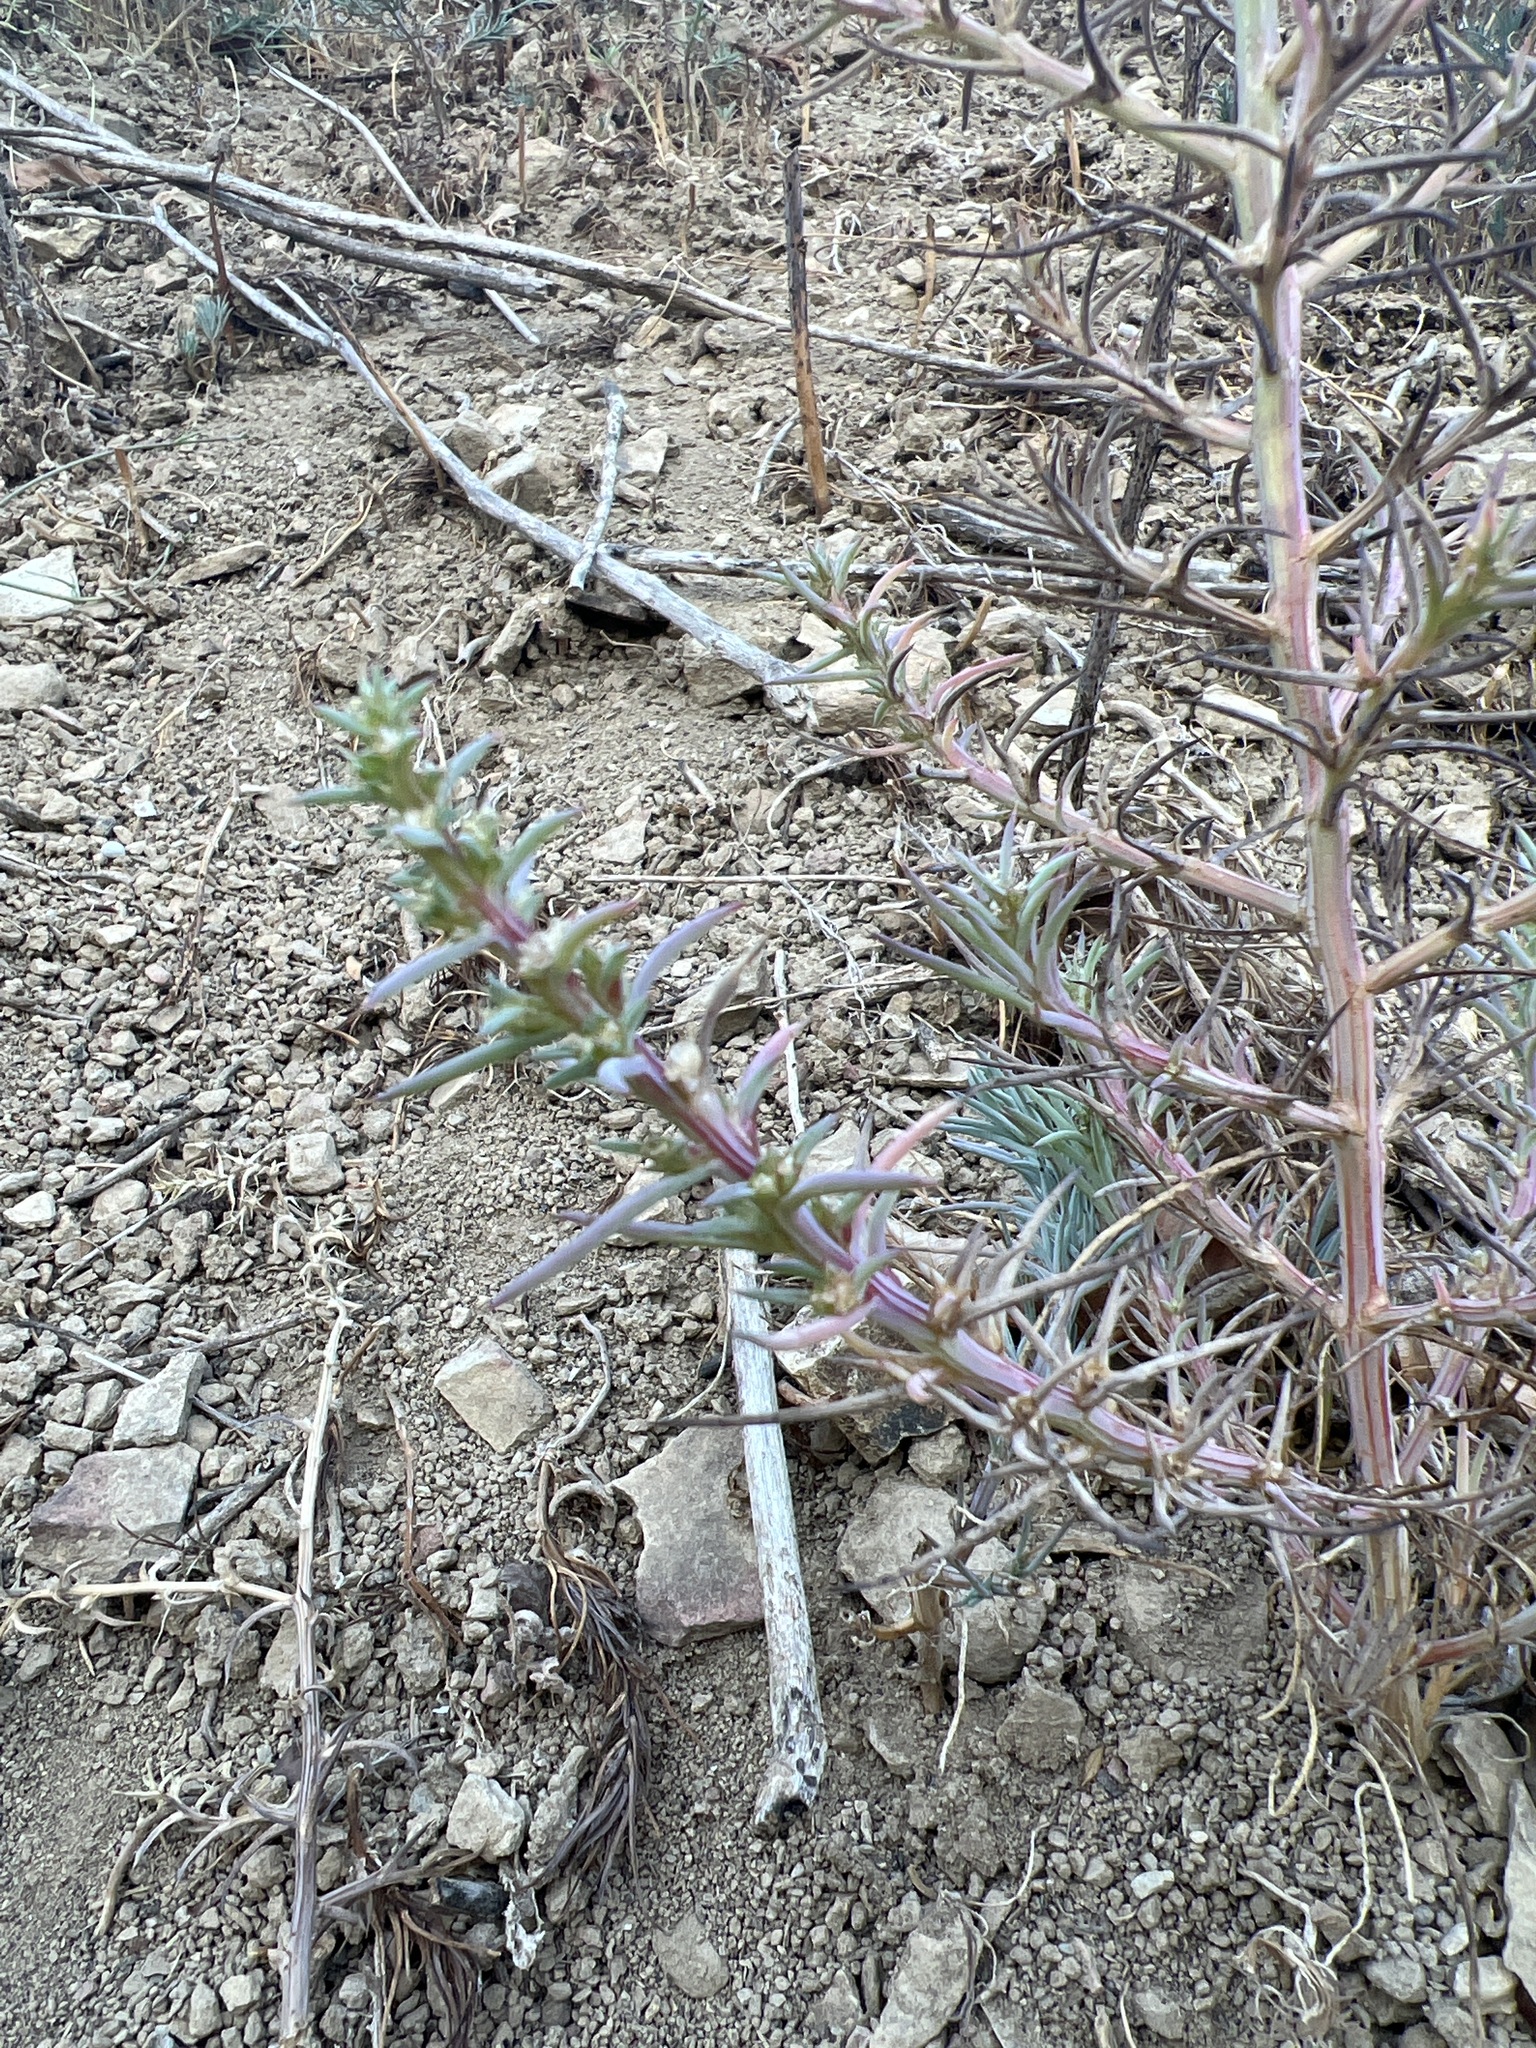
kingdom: Plantae
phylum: Tracheophyta
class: Magnoliopsida
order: Caryophyllales
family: Amaranthaceae
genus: Salsola
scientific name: Salsola australis
